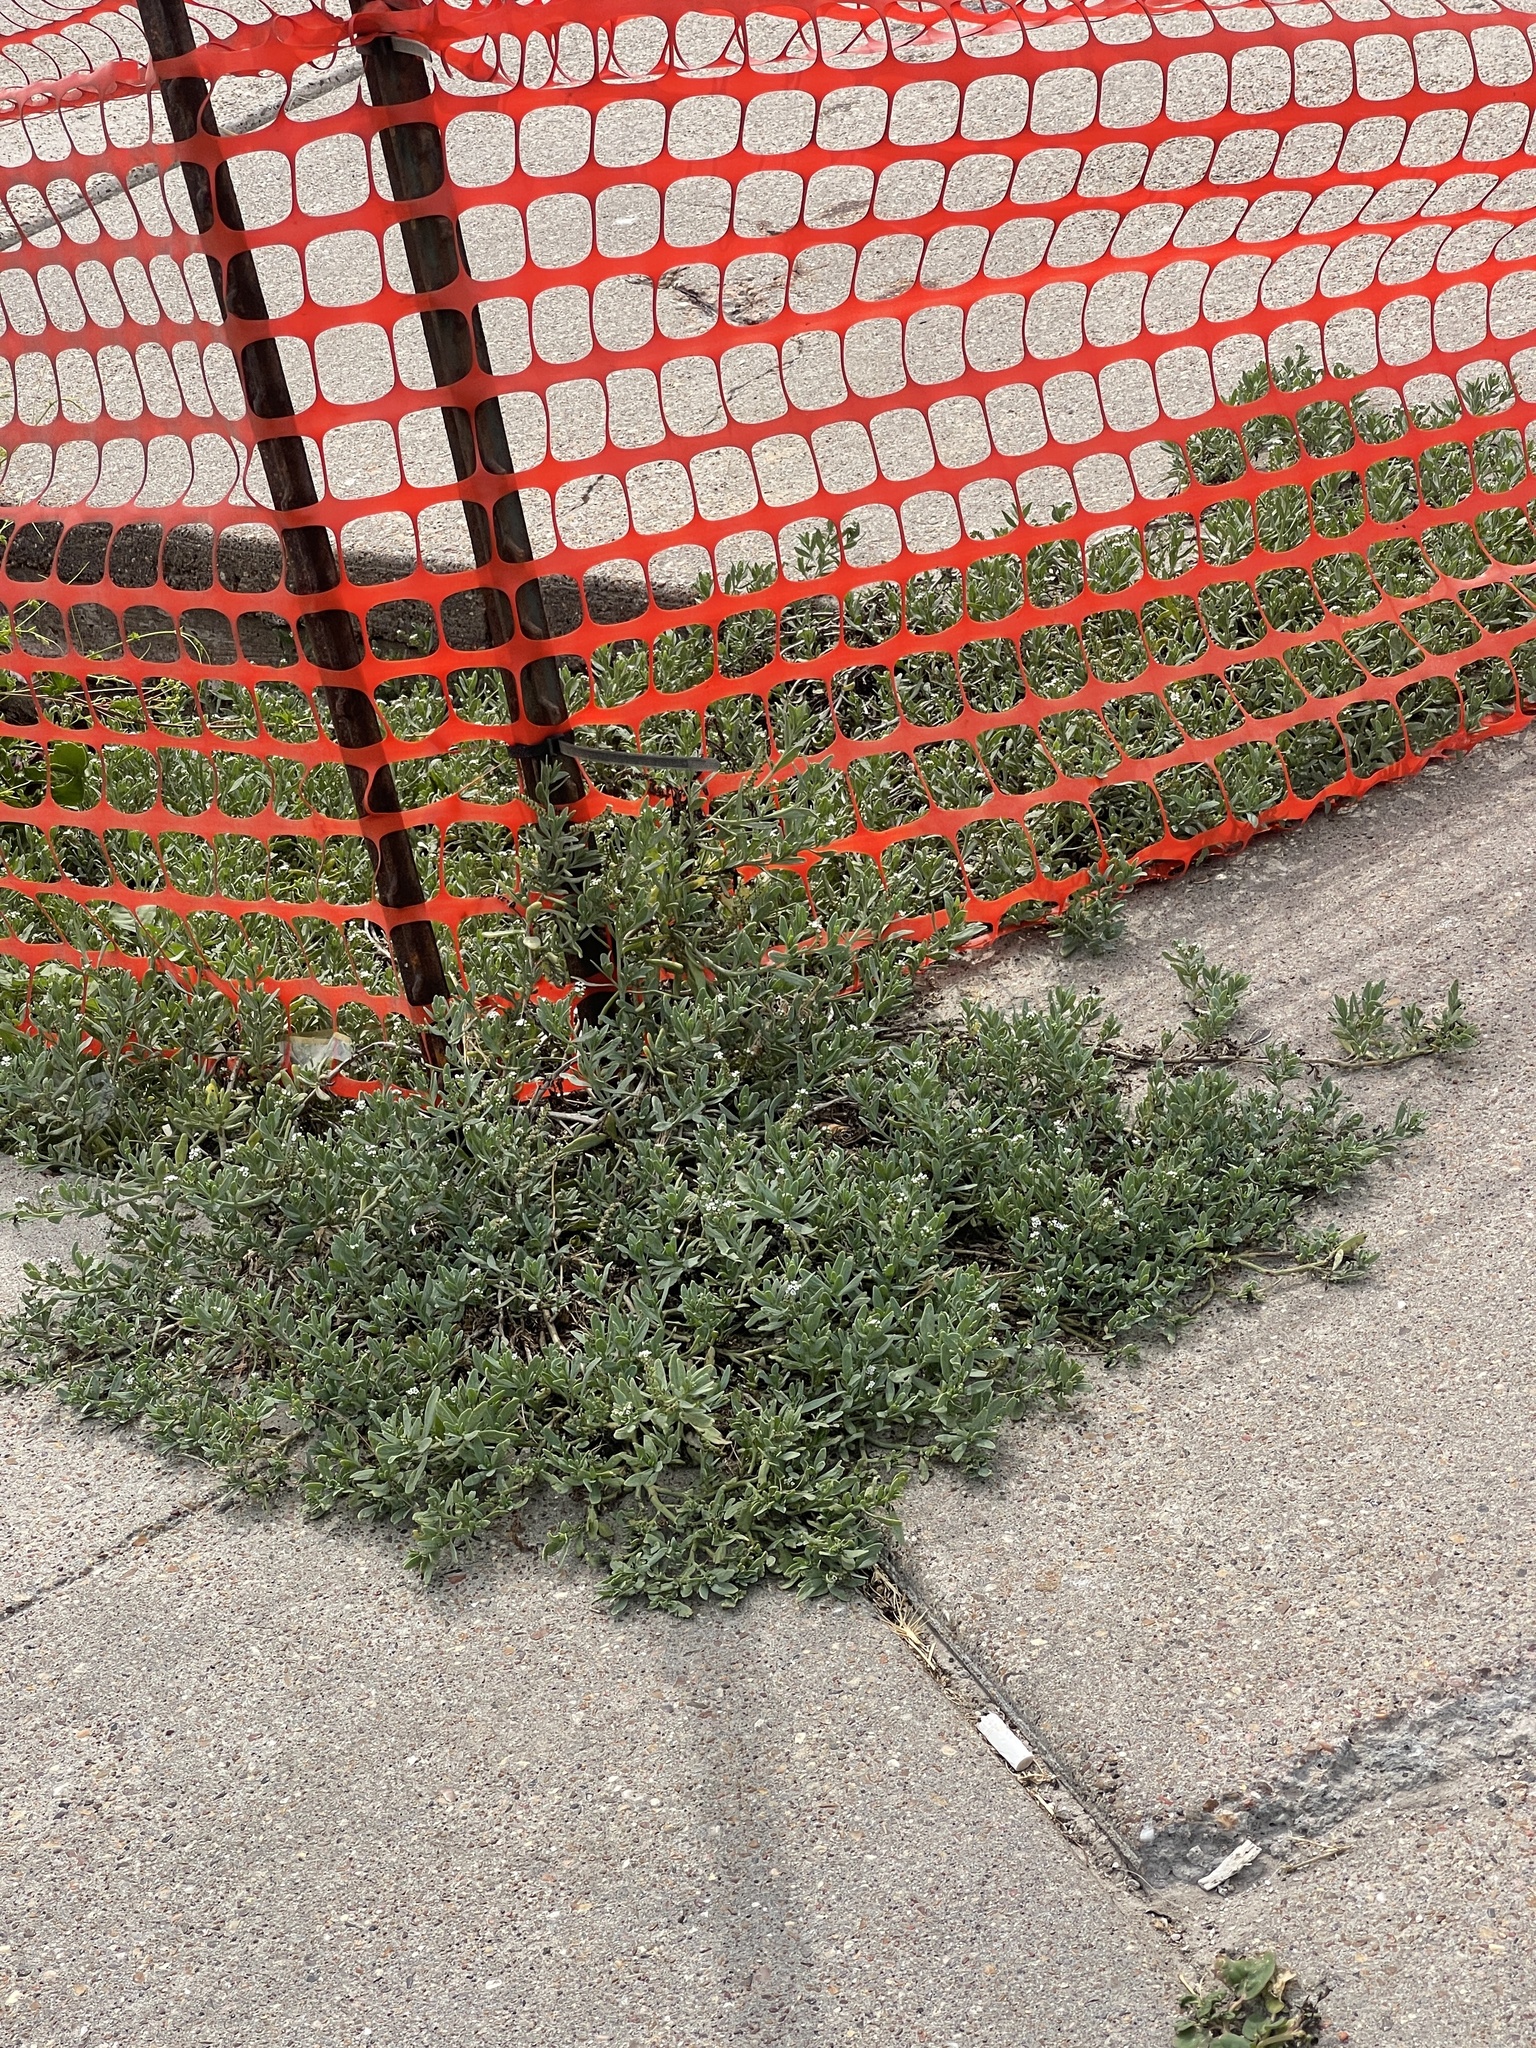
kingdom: Plantae
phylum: Tracheophyta
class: Magnoliopsida
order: Boraginales
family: Heliotropiaceae
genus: Heliotropium
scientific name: Heliotropium curassavicum
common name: Seaside heliotrope
